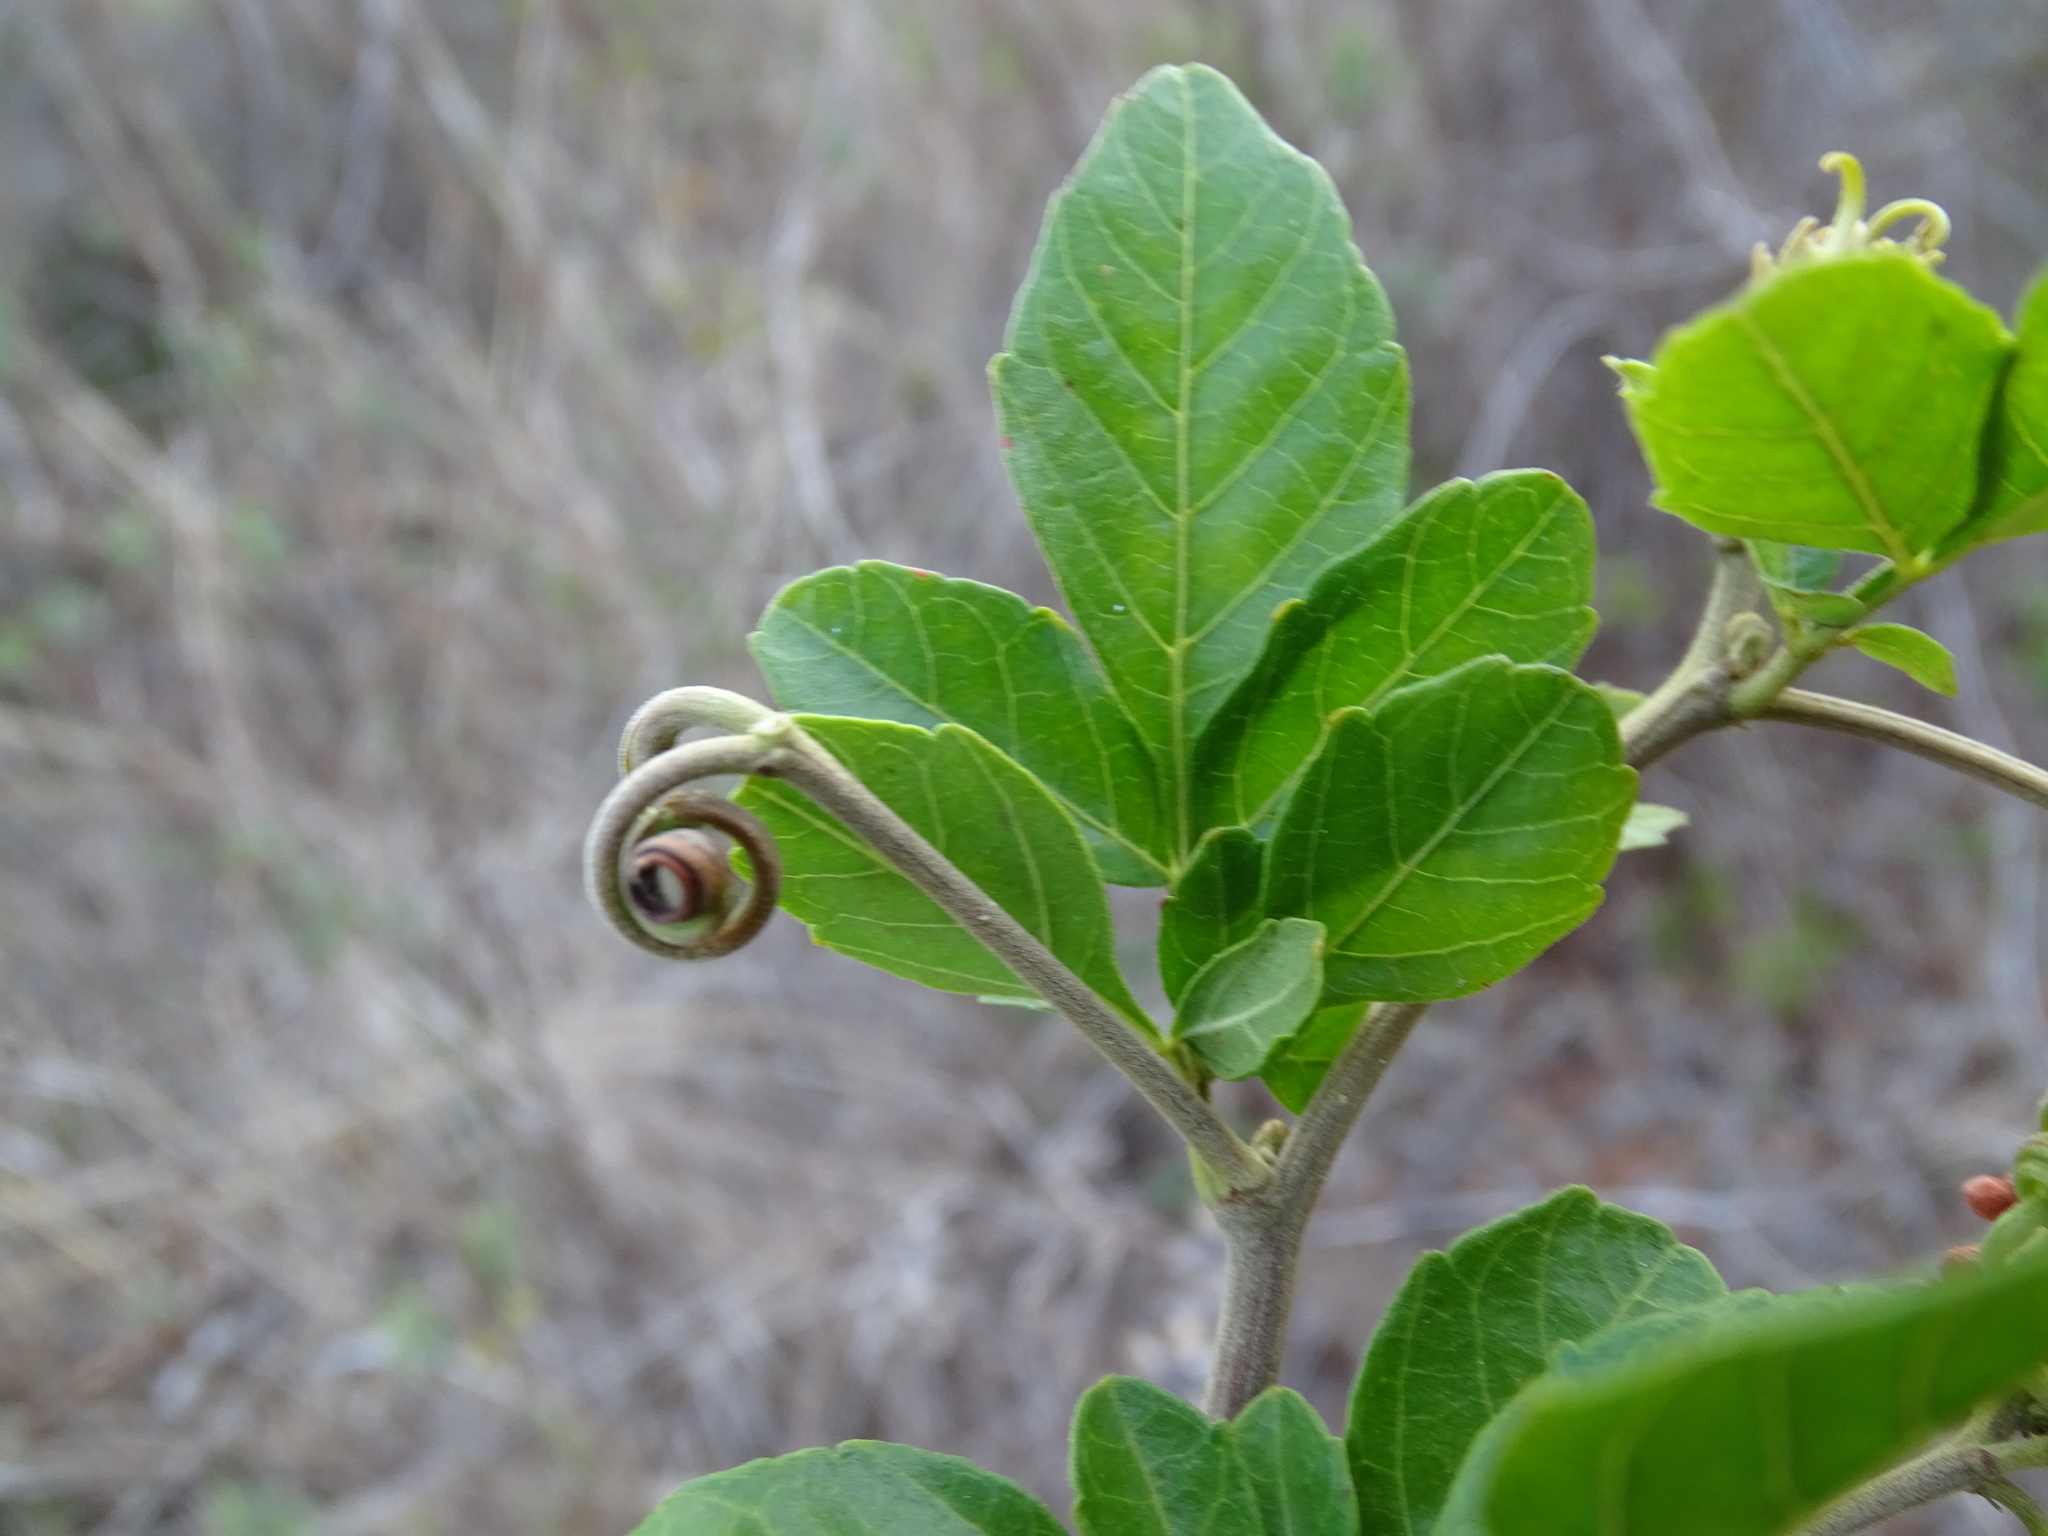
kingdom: Plantae
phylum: Tracheophyta
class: Magnoliopsida
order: Sapindales
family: Sapindaceae
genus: Serjania
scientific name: Serjania mexicana
